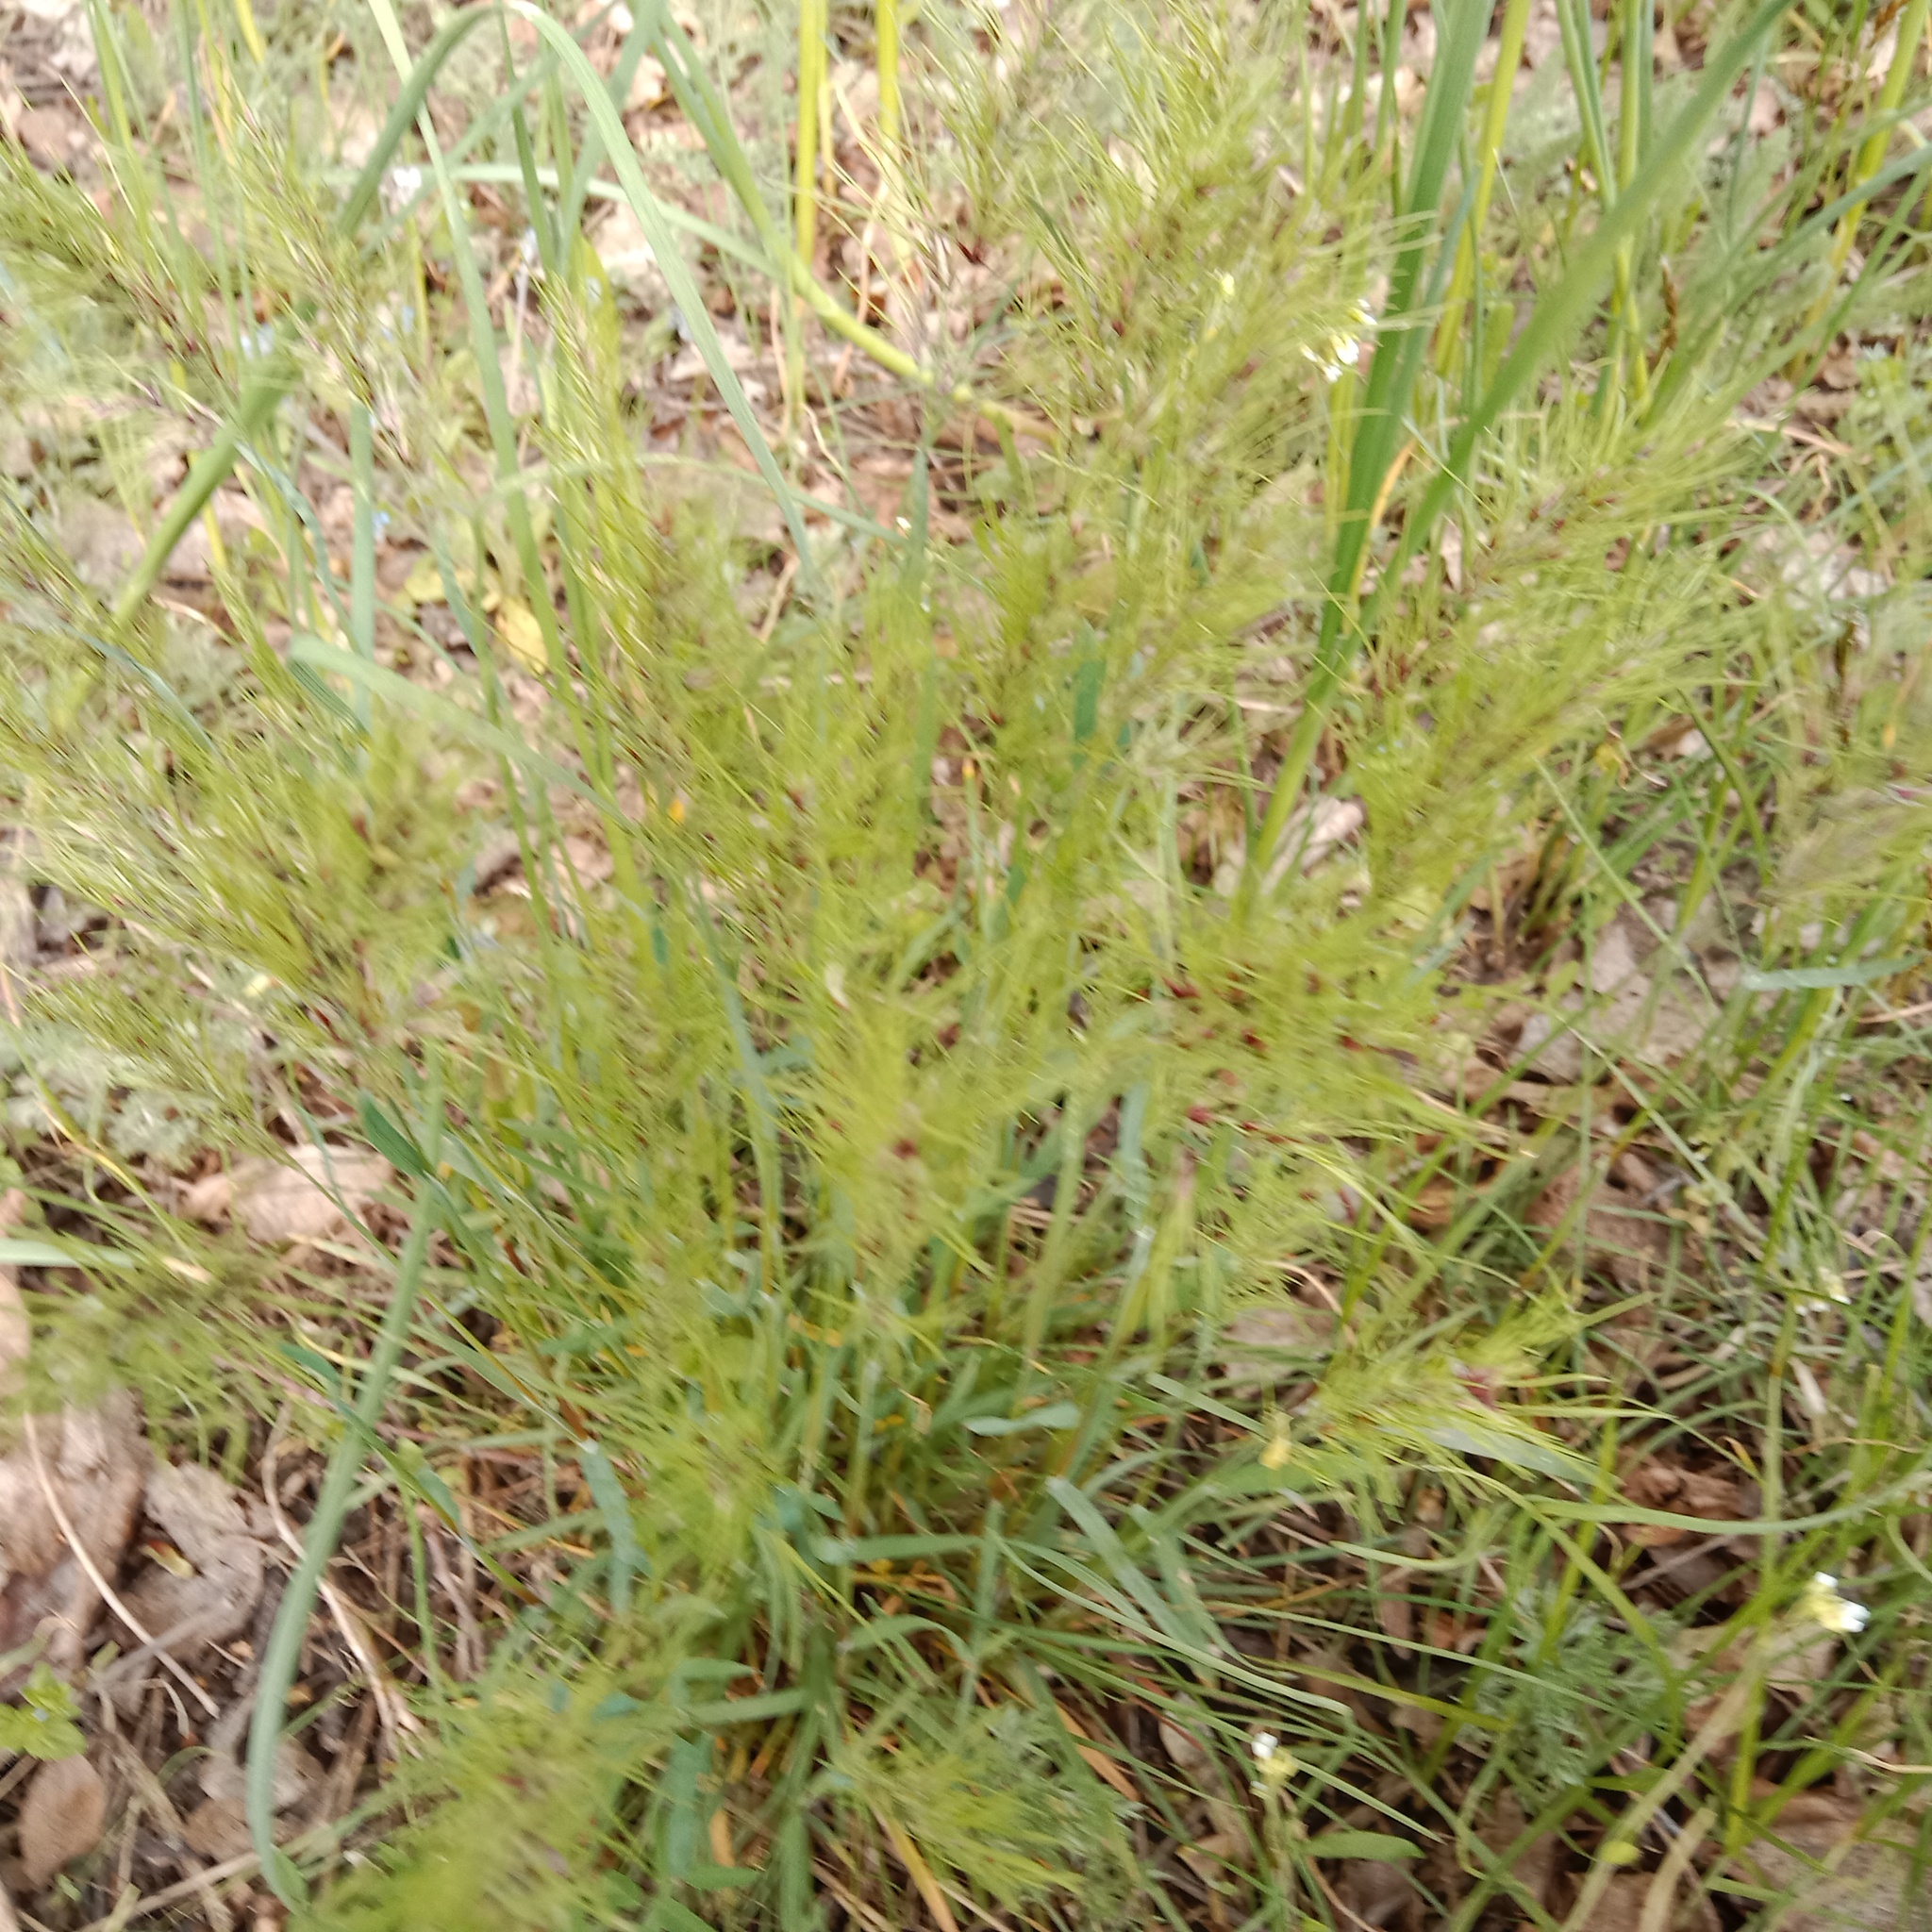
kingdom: Plantae
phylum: Tracheophyta
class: Liliopsida
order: Poales
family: Poaceae
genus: Poa
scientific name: Poa bulbosa
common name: Bulbous bluegrass
